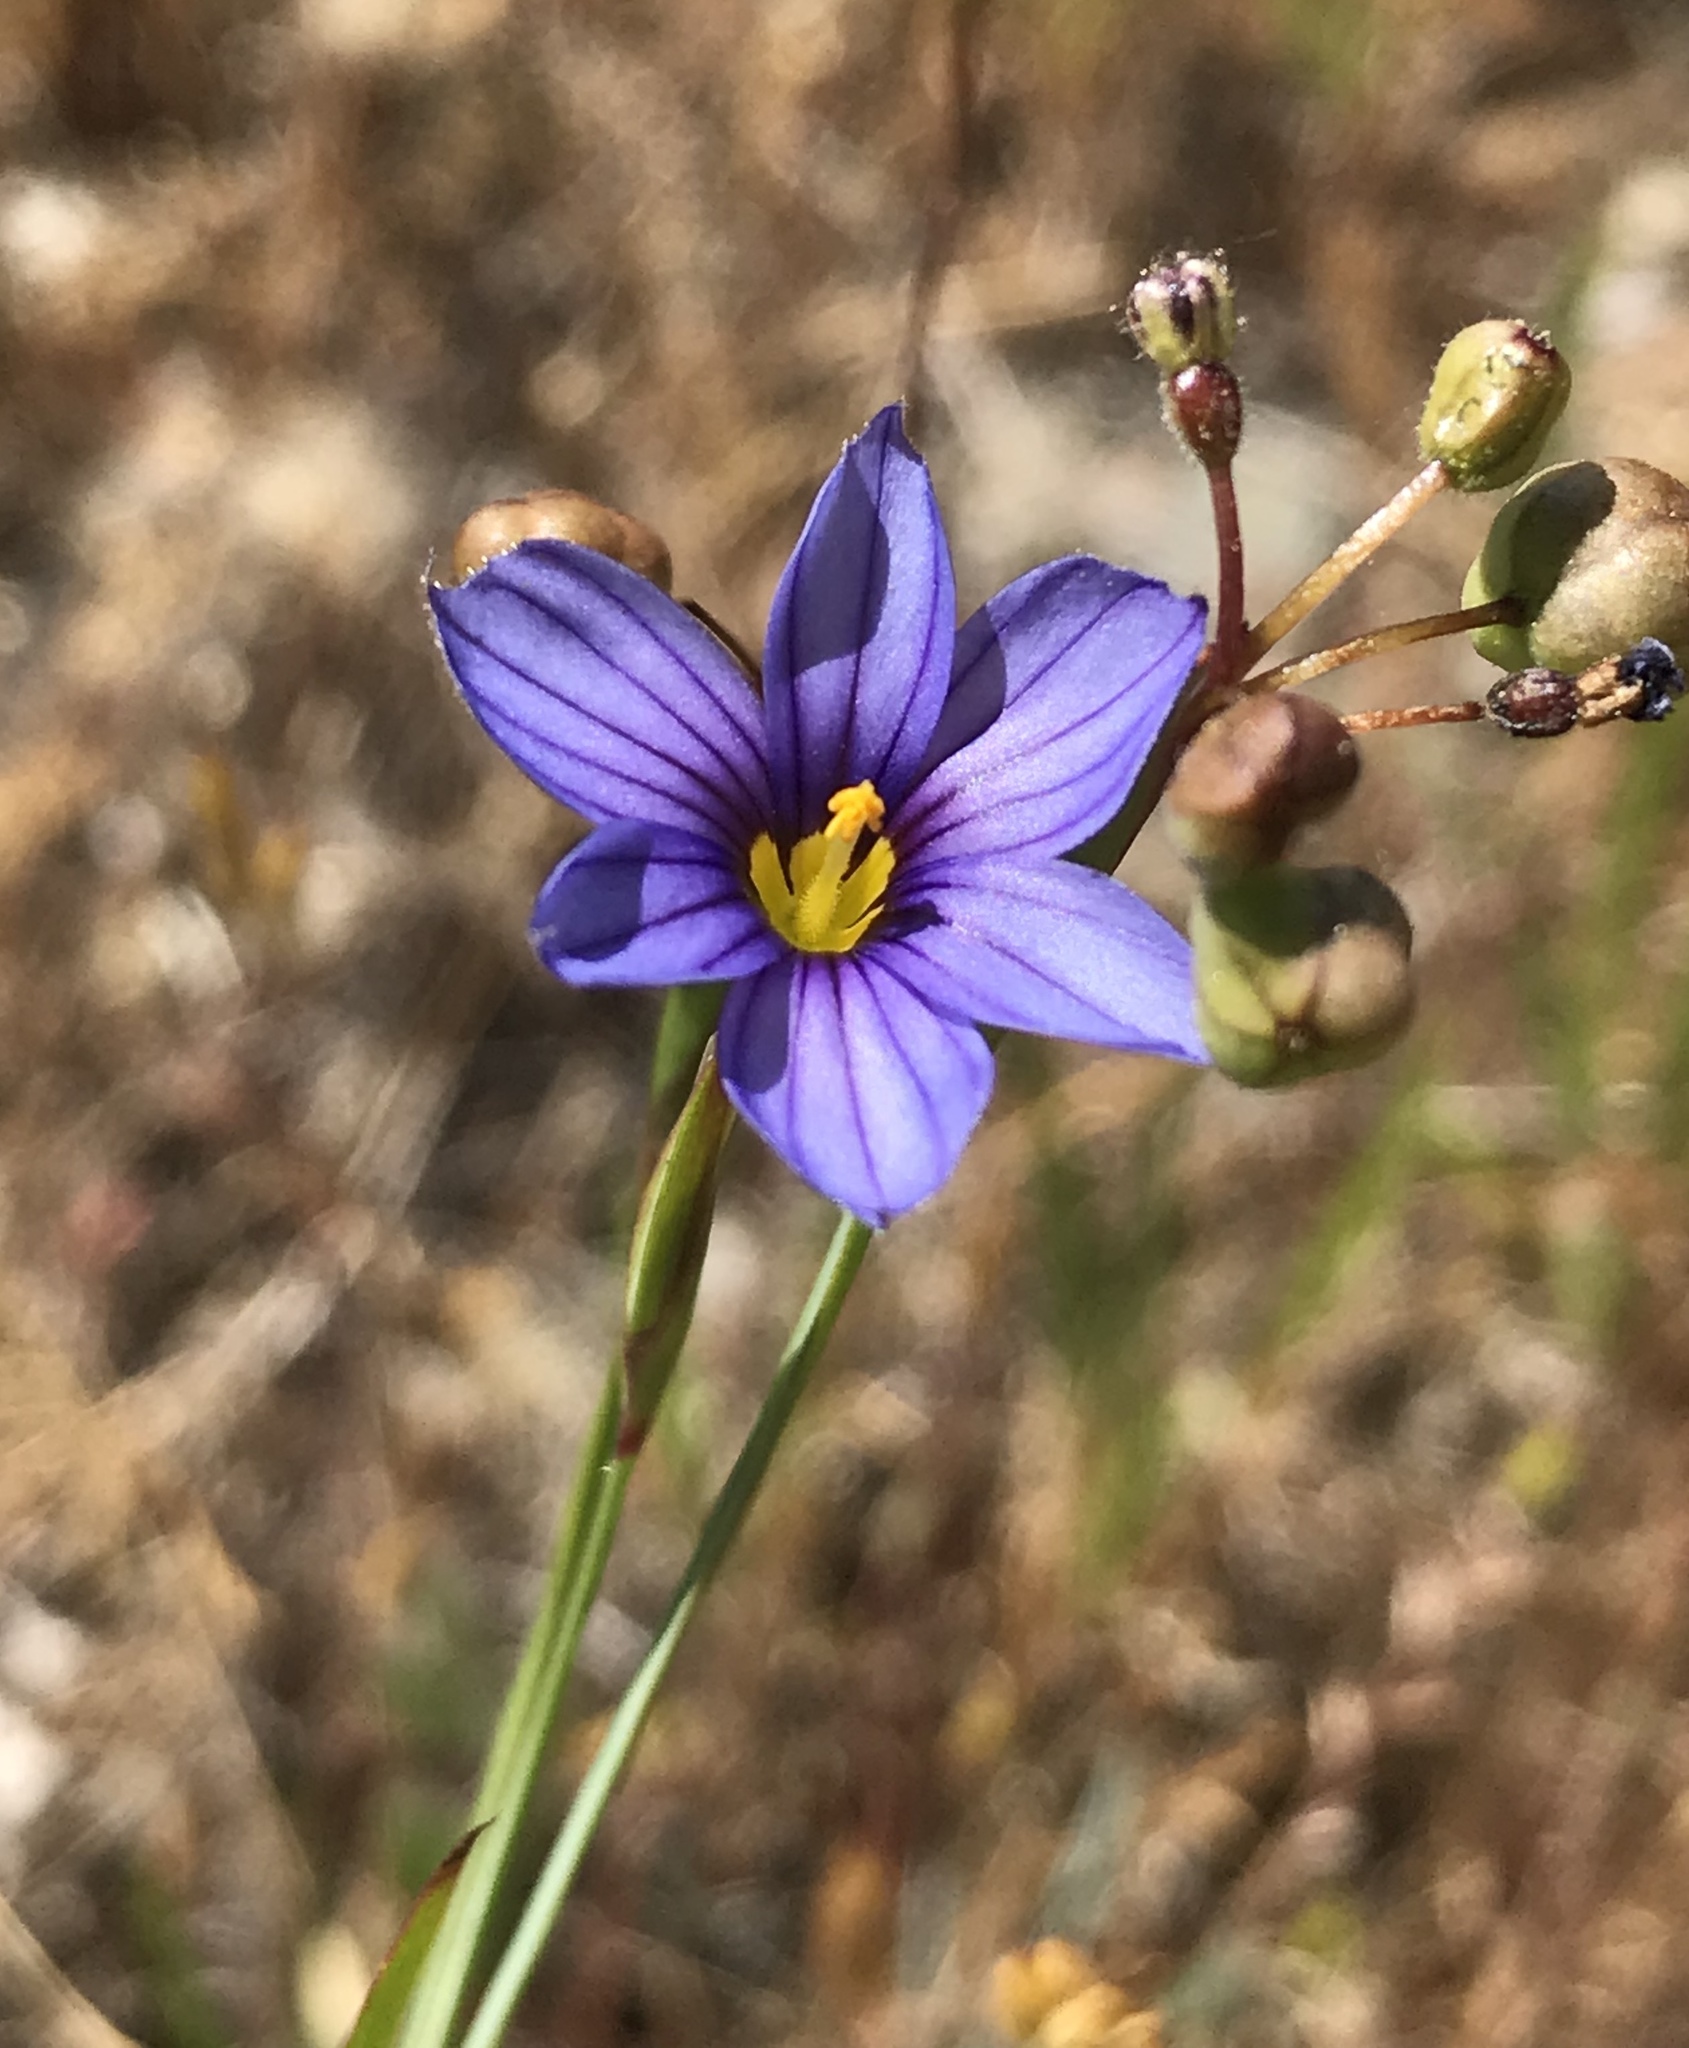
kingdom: Plantae
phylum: Tracheophyta
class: Liliopsida
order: Asparagales
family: Iridaceae
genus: Sisyrinchium
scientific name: Sisyrinchium bellum
